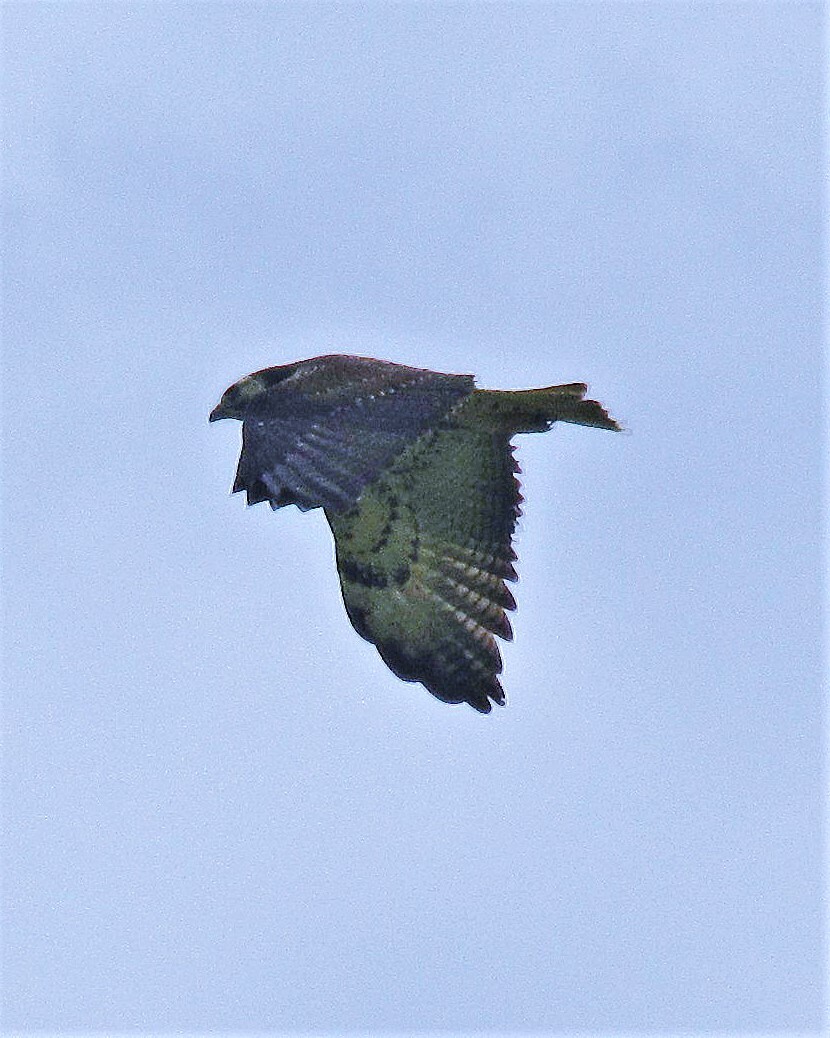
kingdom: Animalia
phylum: Chordata
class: Aves
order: Accipitriformes
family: Accipitridae
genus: Buteo
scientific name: Buteo albicaudatus
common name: White-tailed hawk
